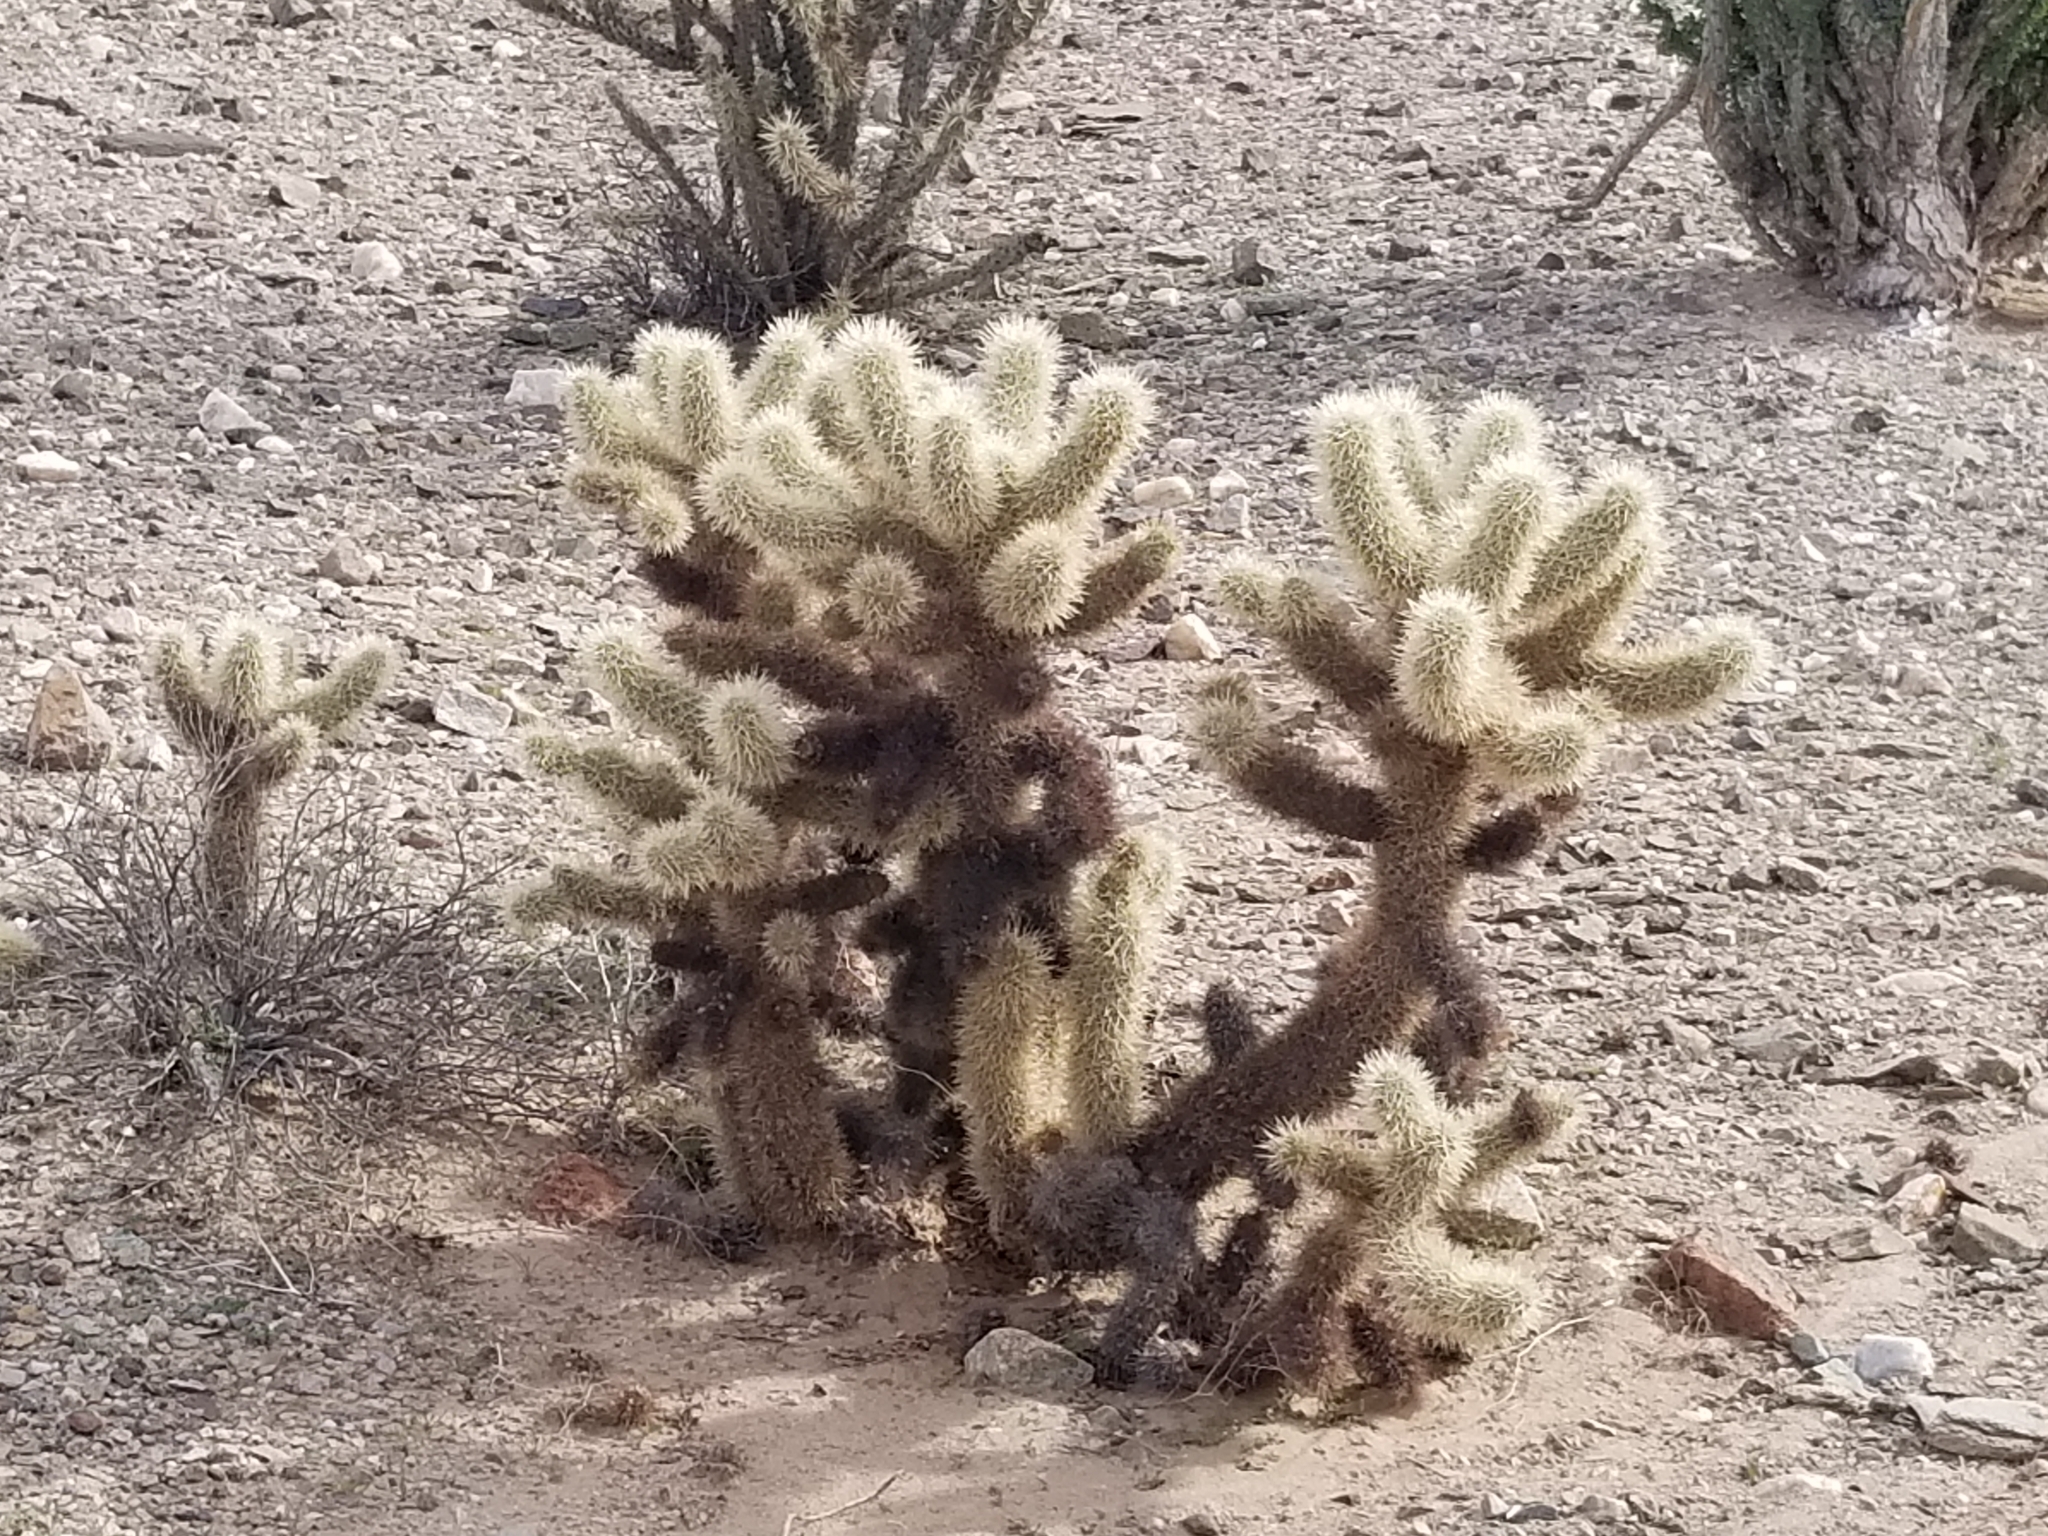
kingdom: Plantae
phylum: Tracheophyta
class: Magnoliopsida
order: Caryophyllales
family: Cactaceae
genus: Cylindropuntia
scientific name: Cylindropuntia fosbergii
